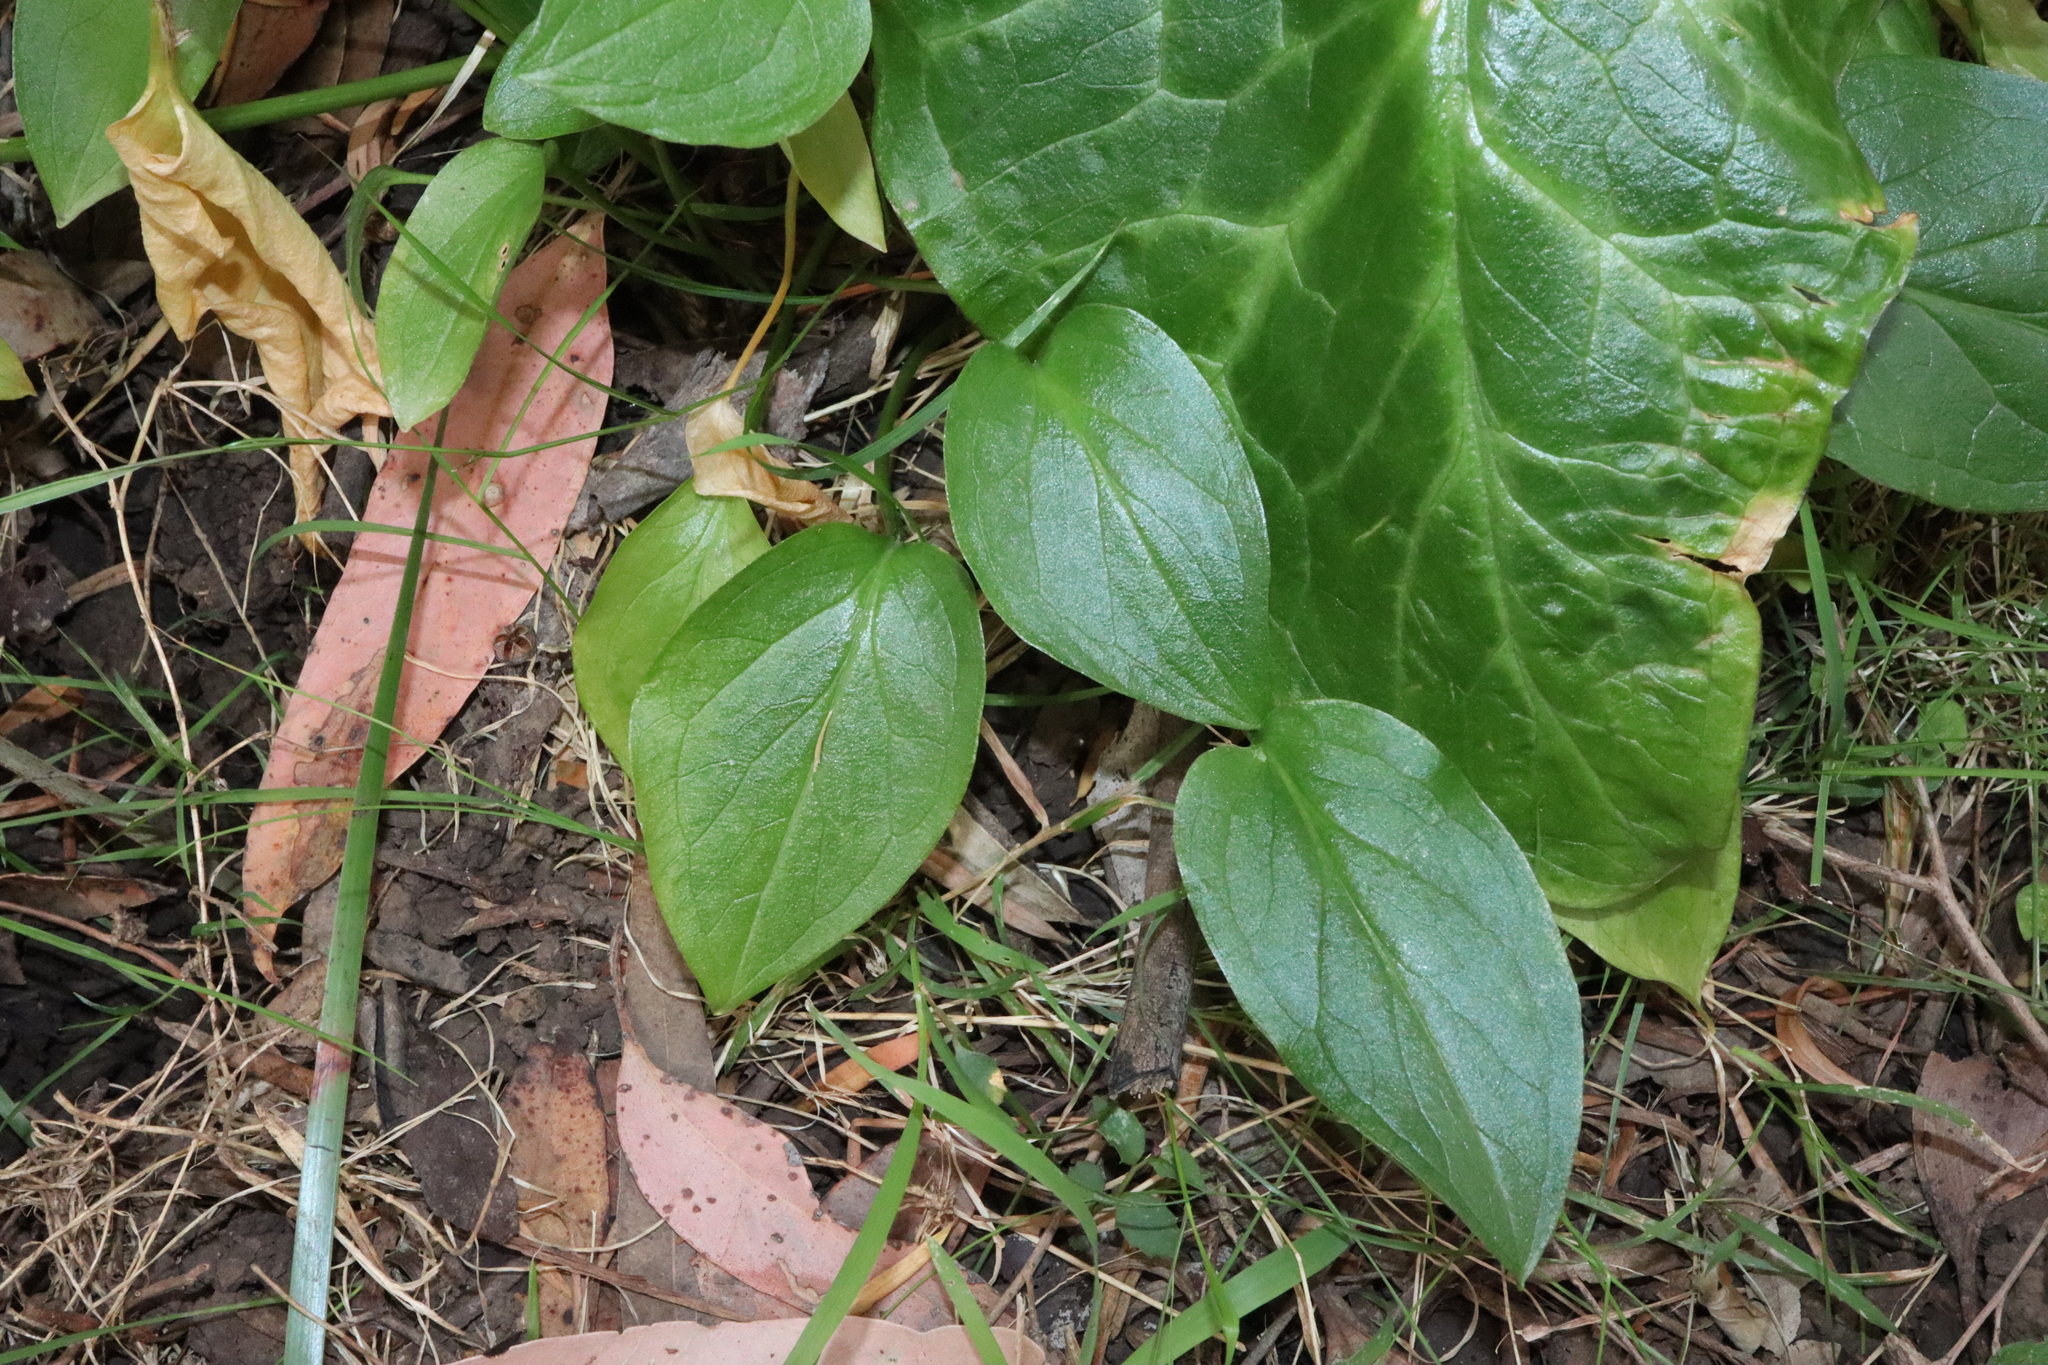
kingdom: Plantae
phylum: Tracheophyta
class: Liliopsida
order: Alismatales
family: Araceae
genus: Arum
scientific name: Arum italicum
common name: Italian lords-and-ladies
